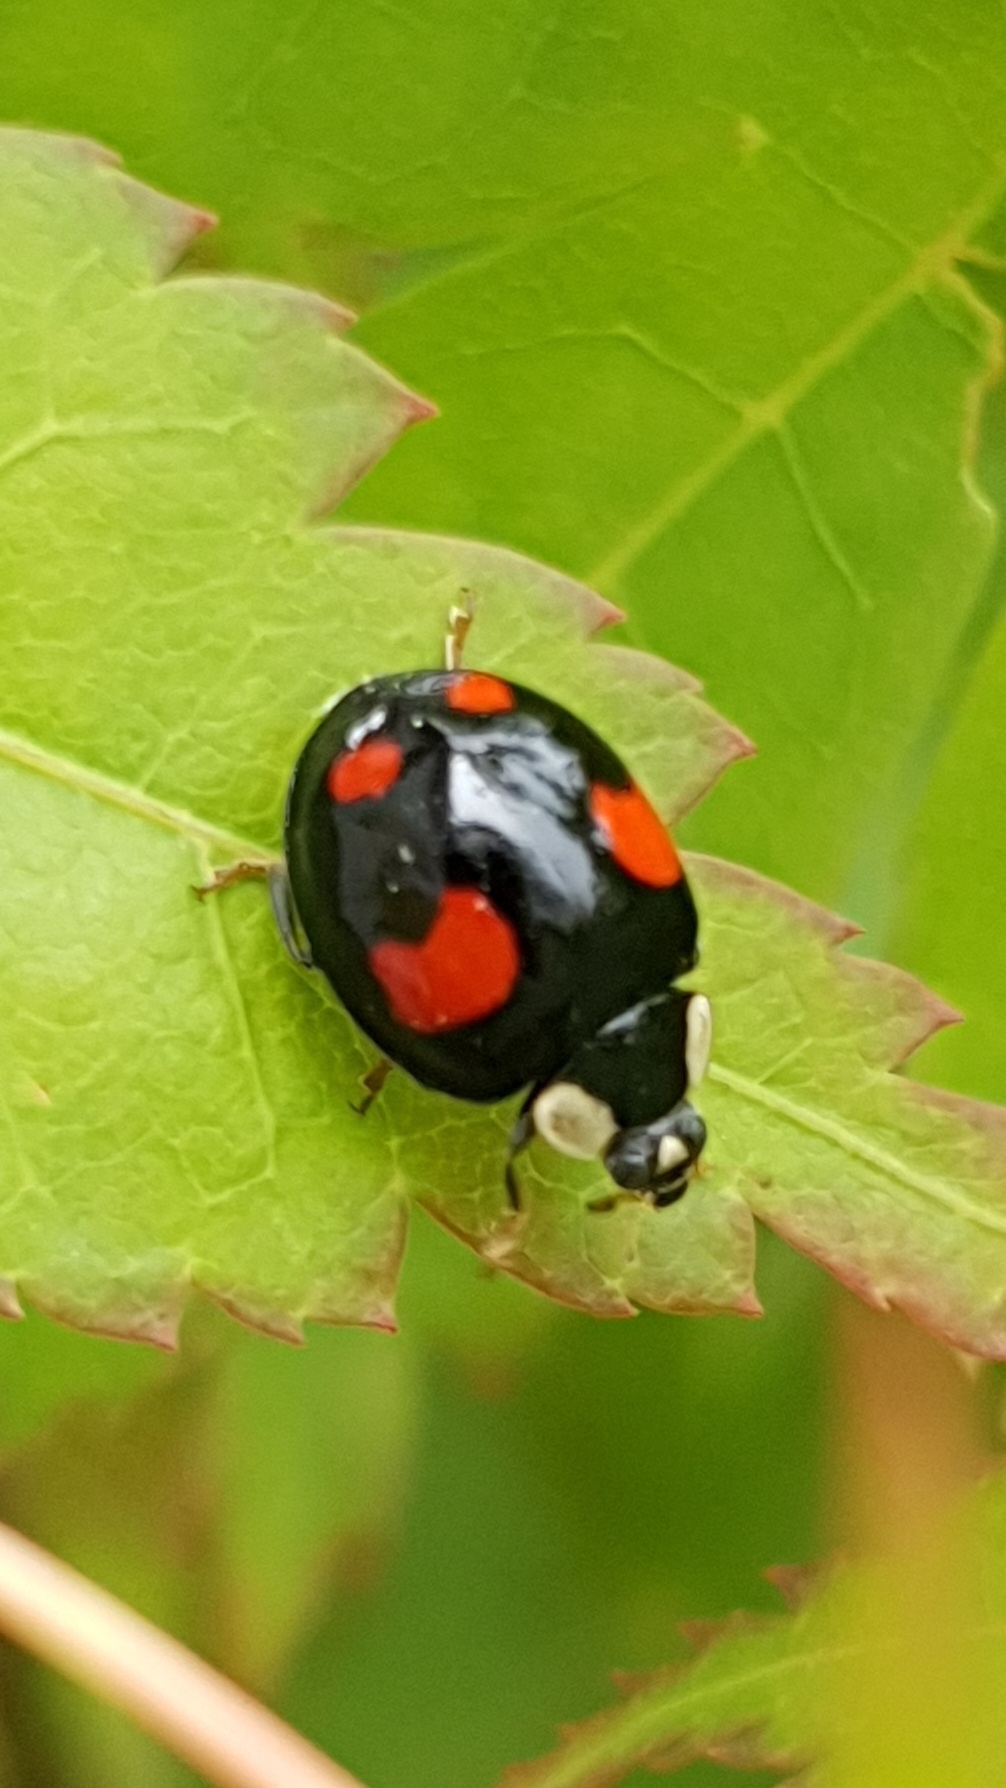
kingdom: Animalia
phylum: Arthropoda
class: Insecta
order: Coleoptera
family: Coccinellidae
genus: Harmonia
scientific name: Harmonia axyridis
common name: Harlequin ladybird
